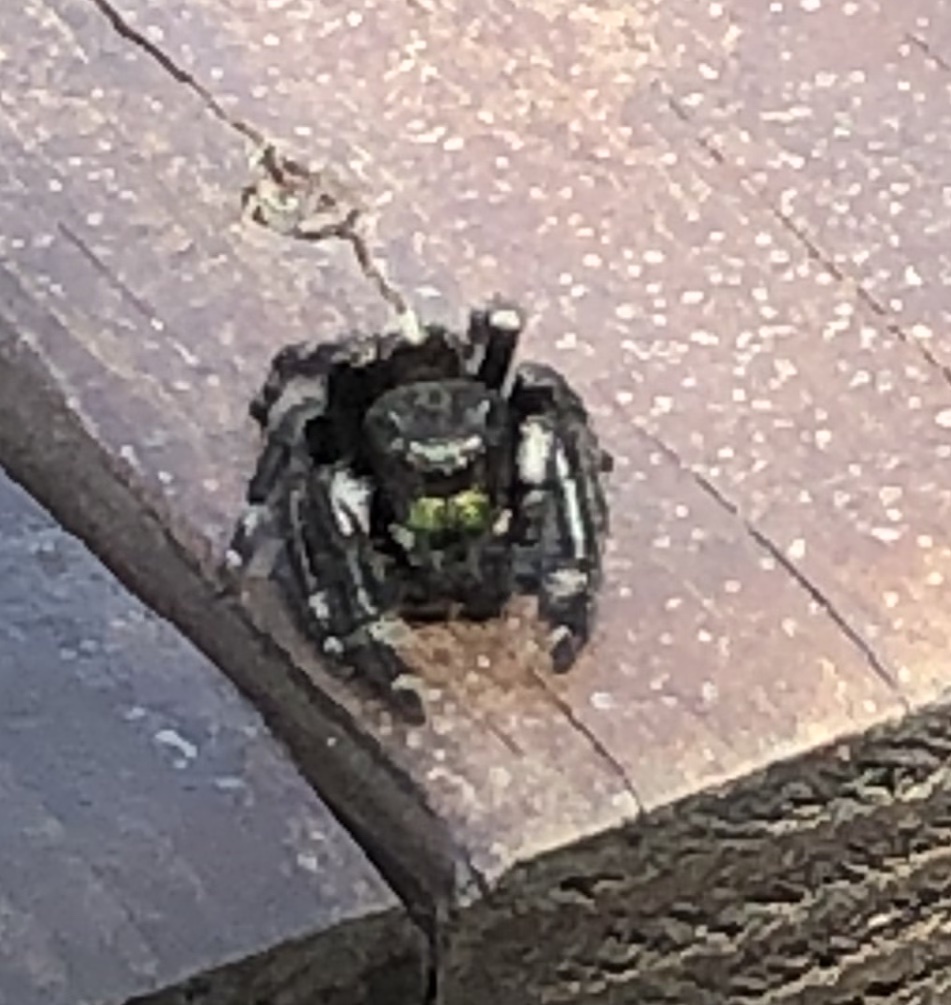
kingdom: Animalia
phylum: Arthropoda
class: Arachnida
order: Araneae
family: Salticidae
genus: Phidippus
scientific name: Phidippus audax
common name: Bold jumper
